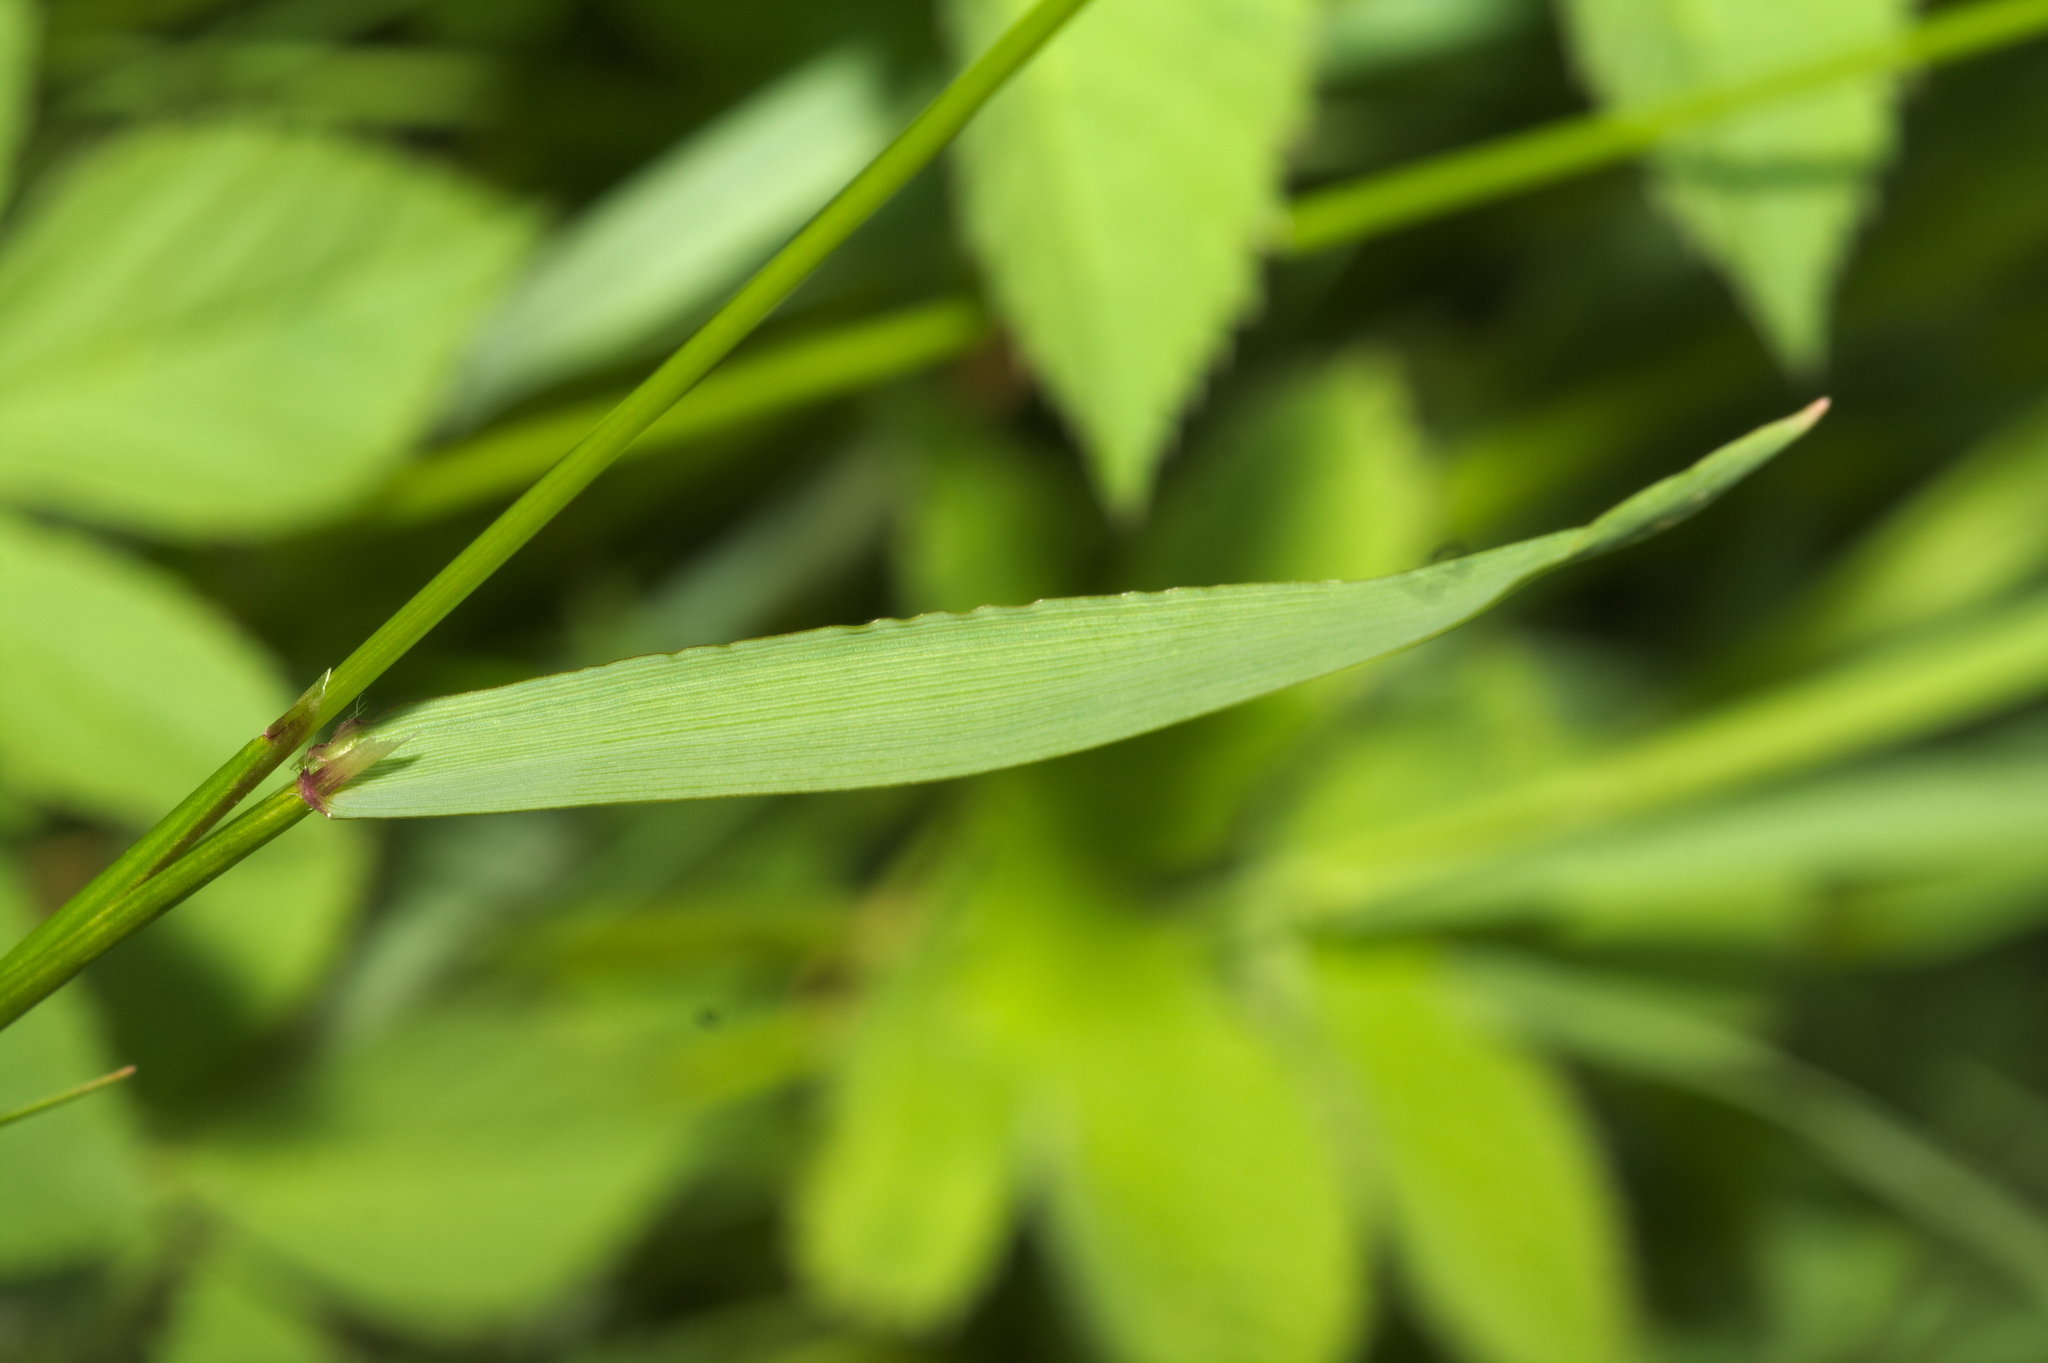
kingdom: Plantae
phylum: Tracheophyta
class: Liliopsida
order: Poales
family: Poaceae
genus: Anthoxanthum
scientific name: Anthoxanthum odoratum
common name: Sweet vernalgrass
